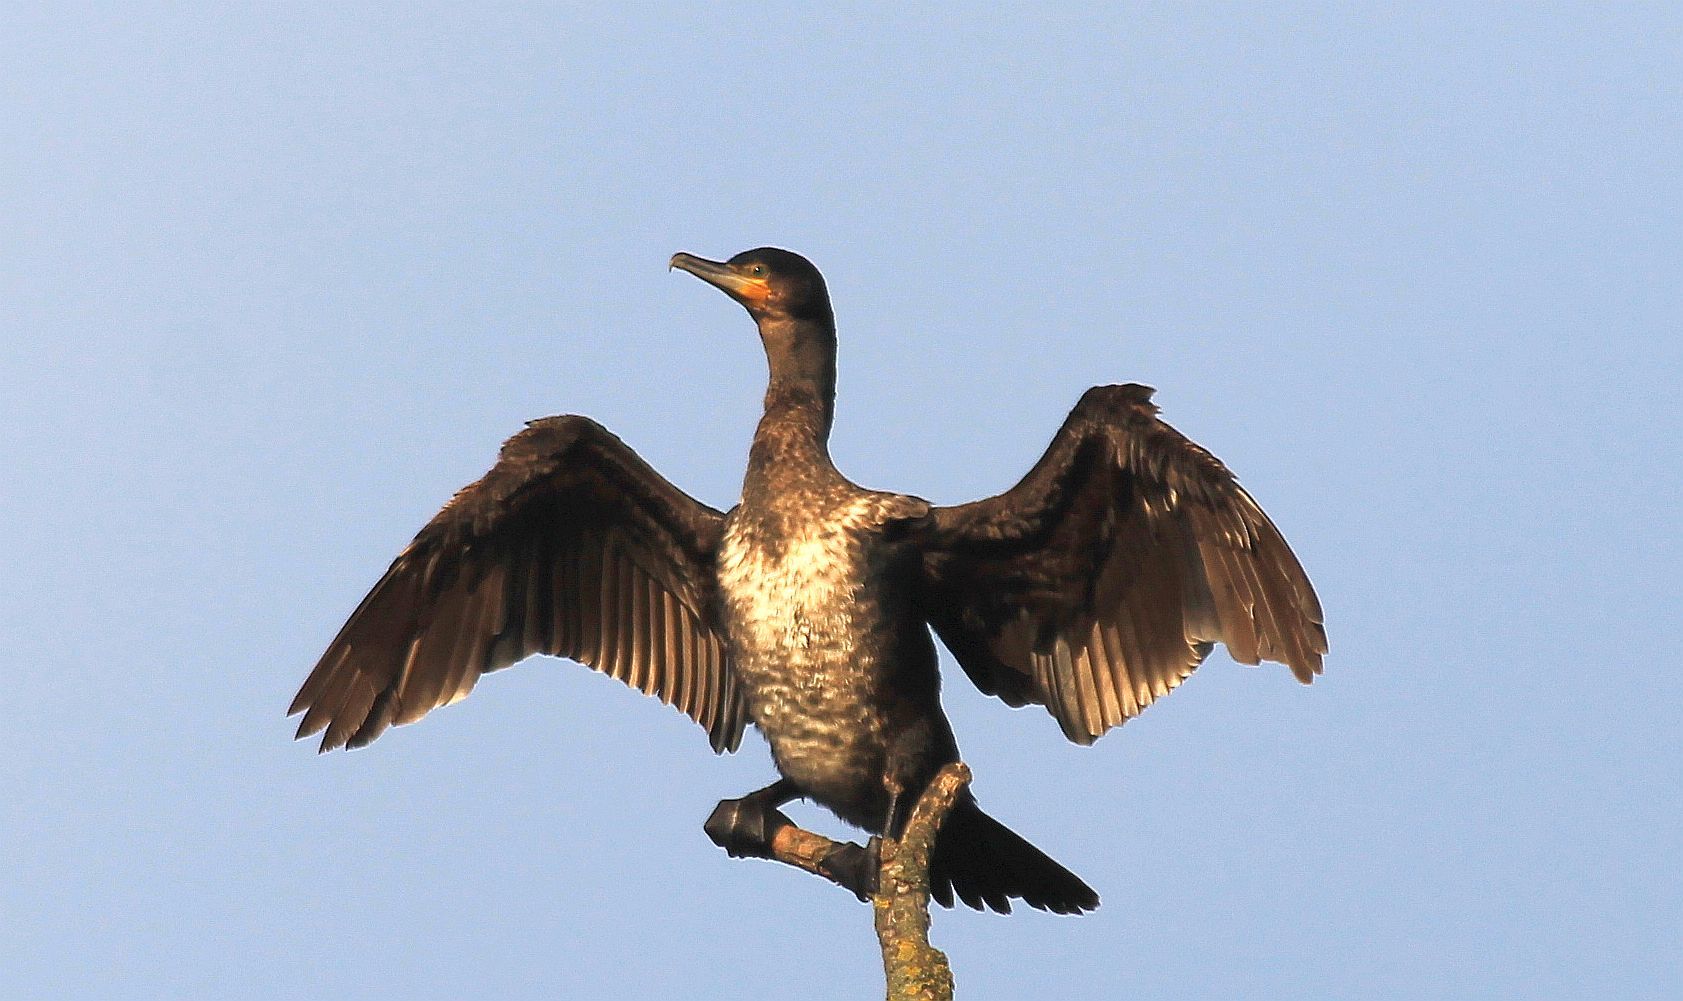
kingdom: Animalia
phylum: Chordata
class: Aves
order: Suliformes
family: Phalacrocoracidae
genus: Phalacrocorax
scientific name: Phalacrocorax carbo
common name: Great cormorant
